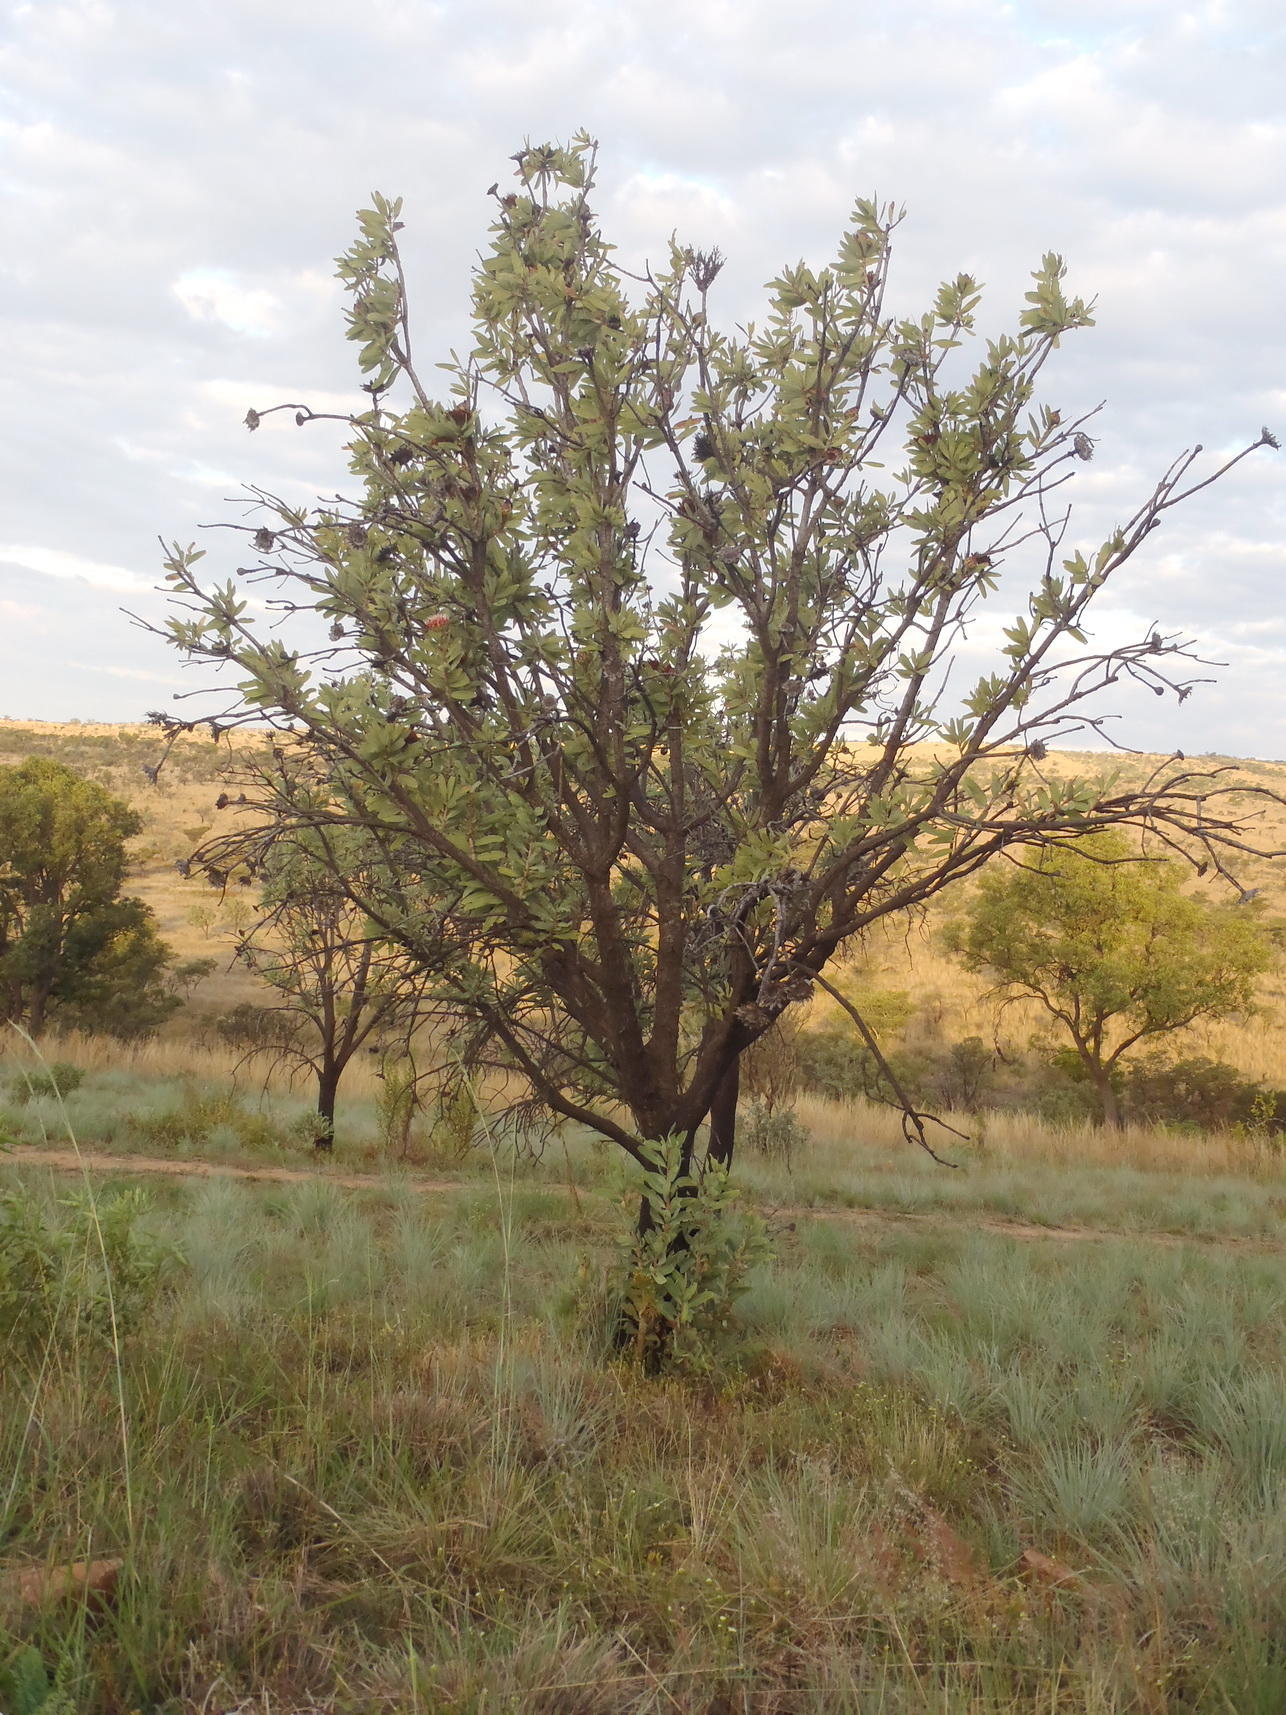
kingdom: Plantae
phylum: Tracheophyta
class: Magnoliopsida
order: Proteales
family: Proteaceae
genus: Protea
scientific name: Protea caffra
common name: Common sugarbush
